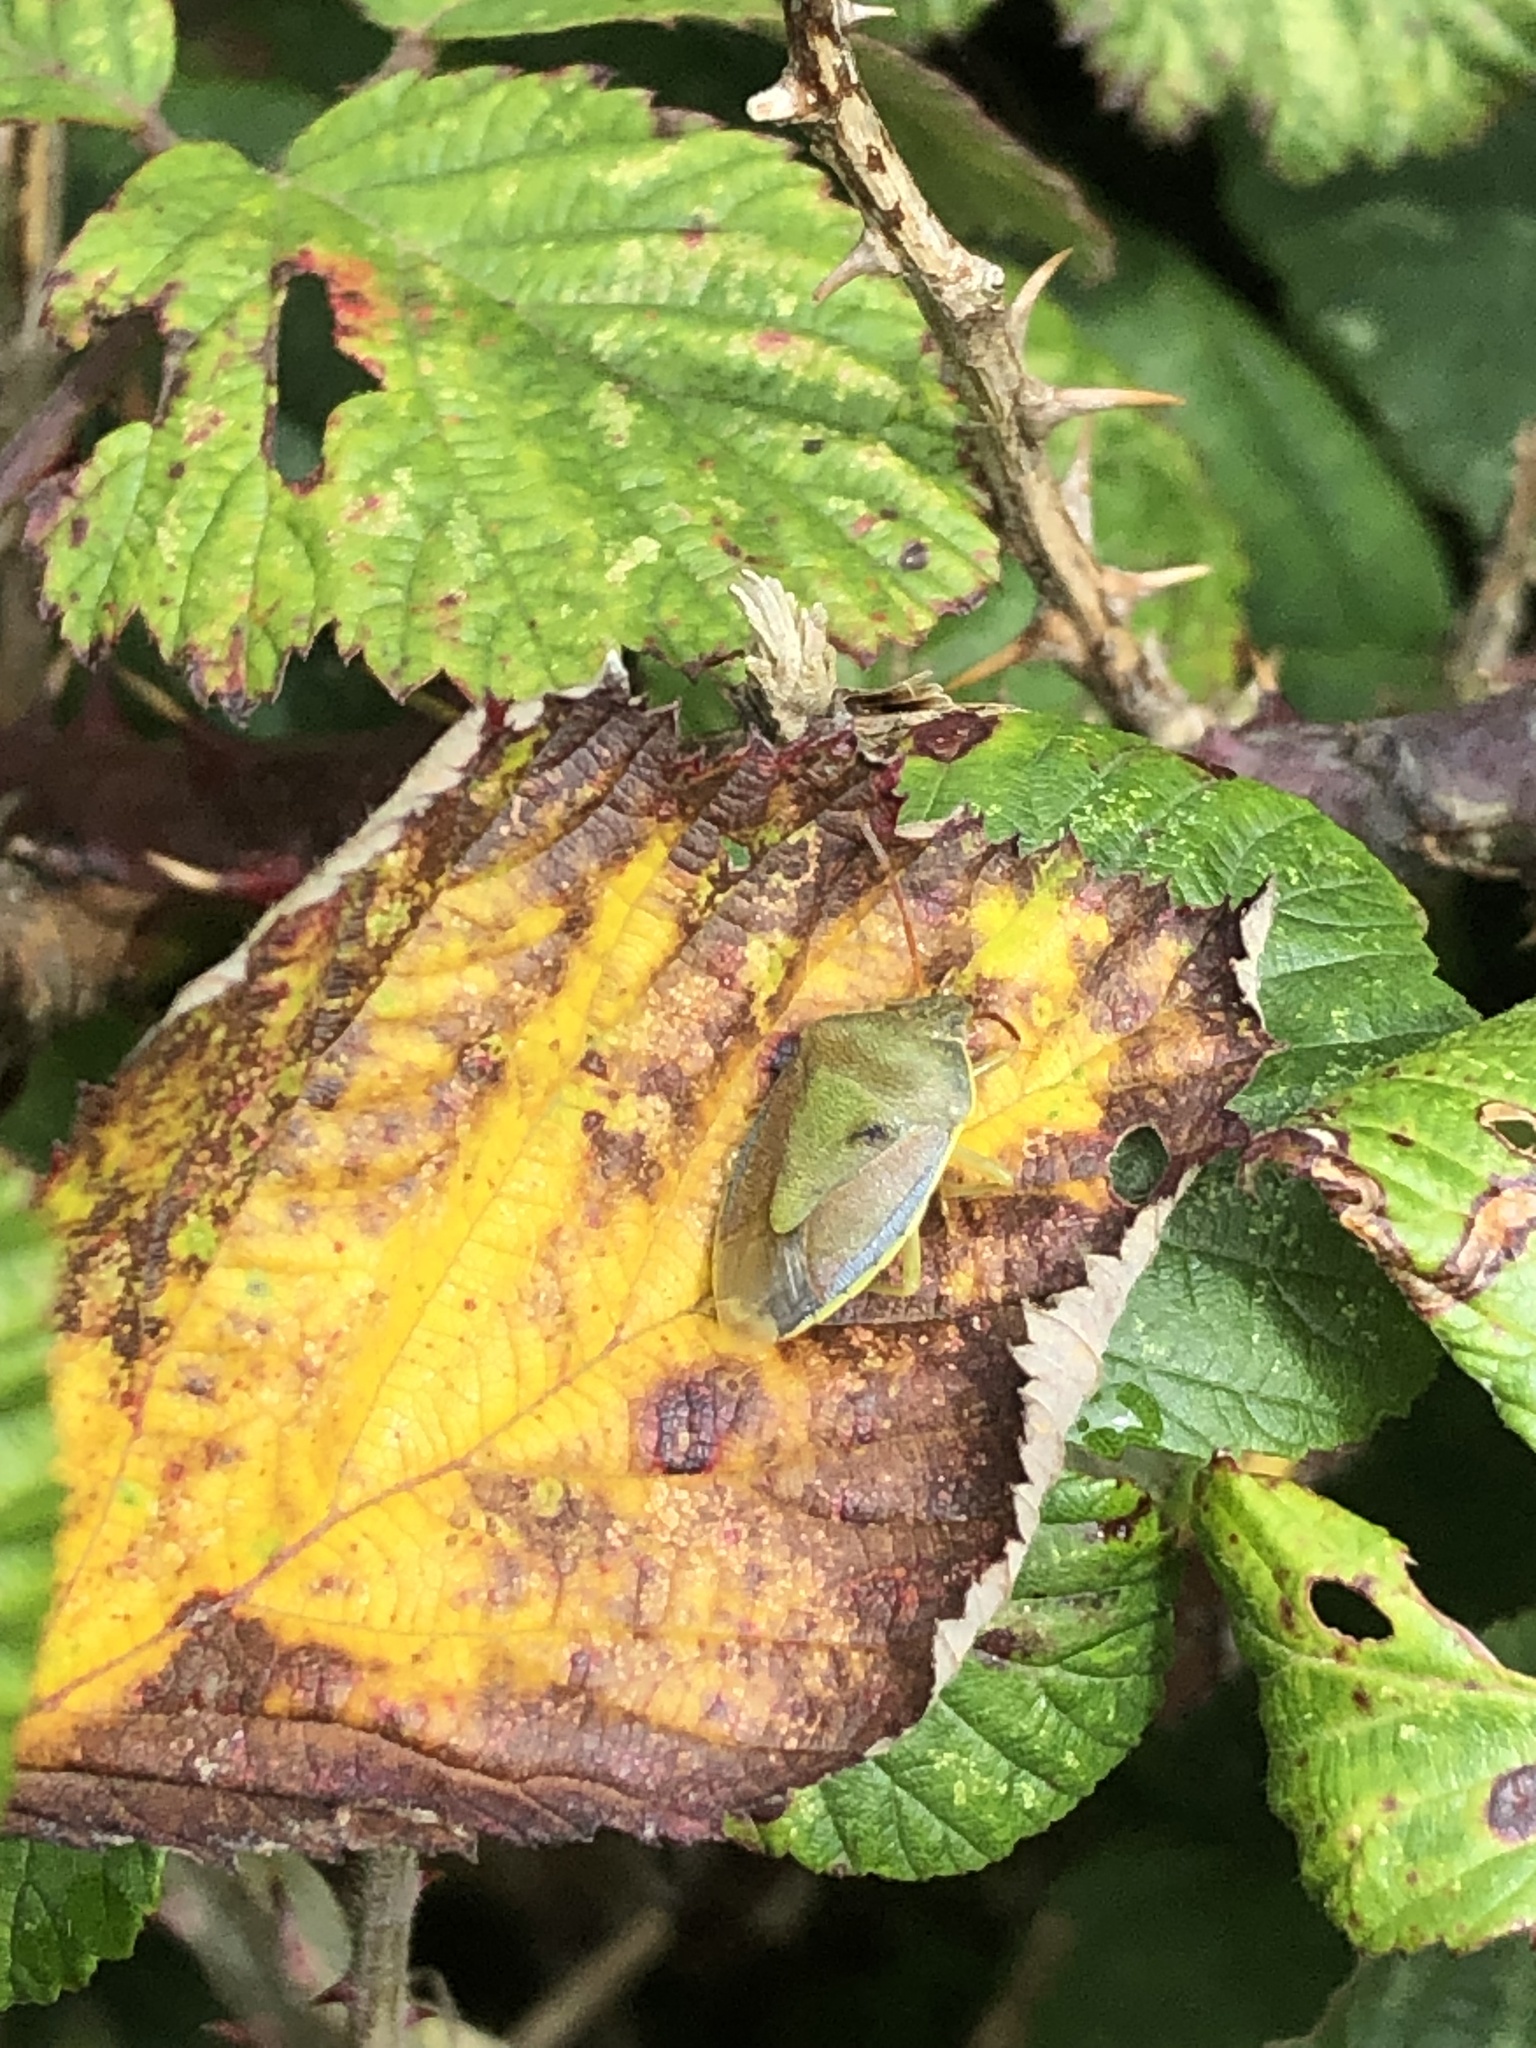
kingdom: Animalia
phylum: Arthropoda
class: Insecta
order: Hemiptera
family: Pentatomidae
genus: Piezodorus
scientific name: Piezodorus lituratus
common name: Stink bug
